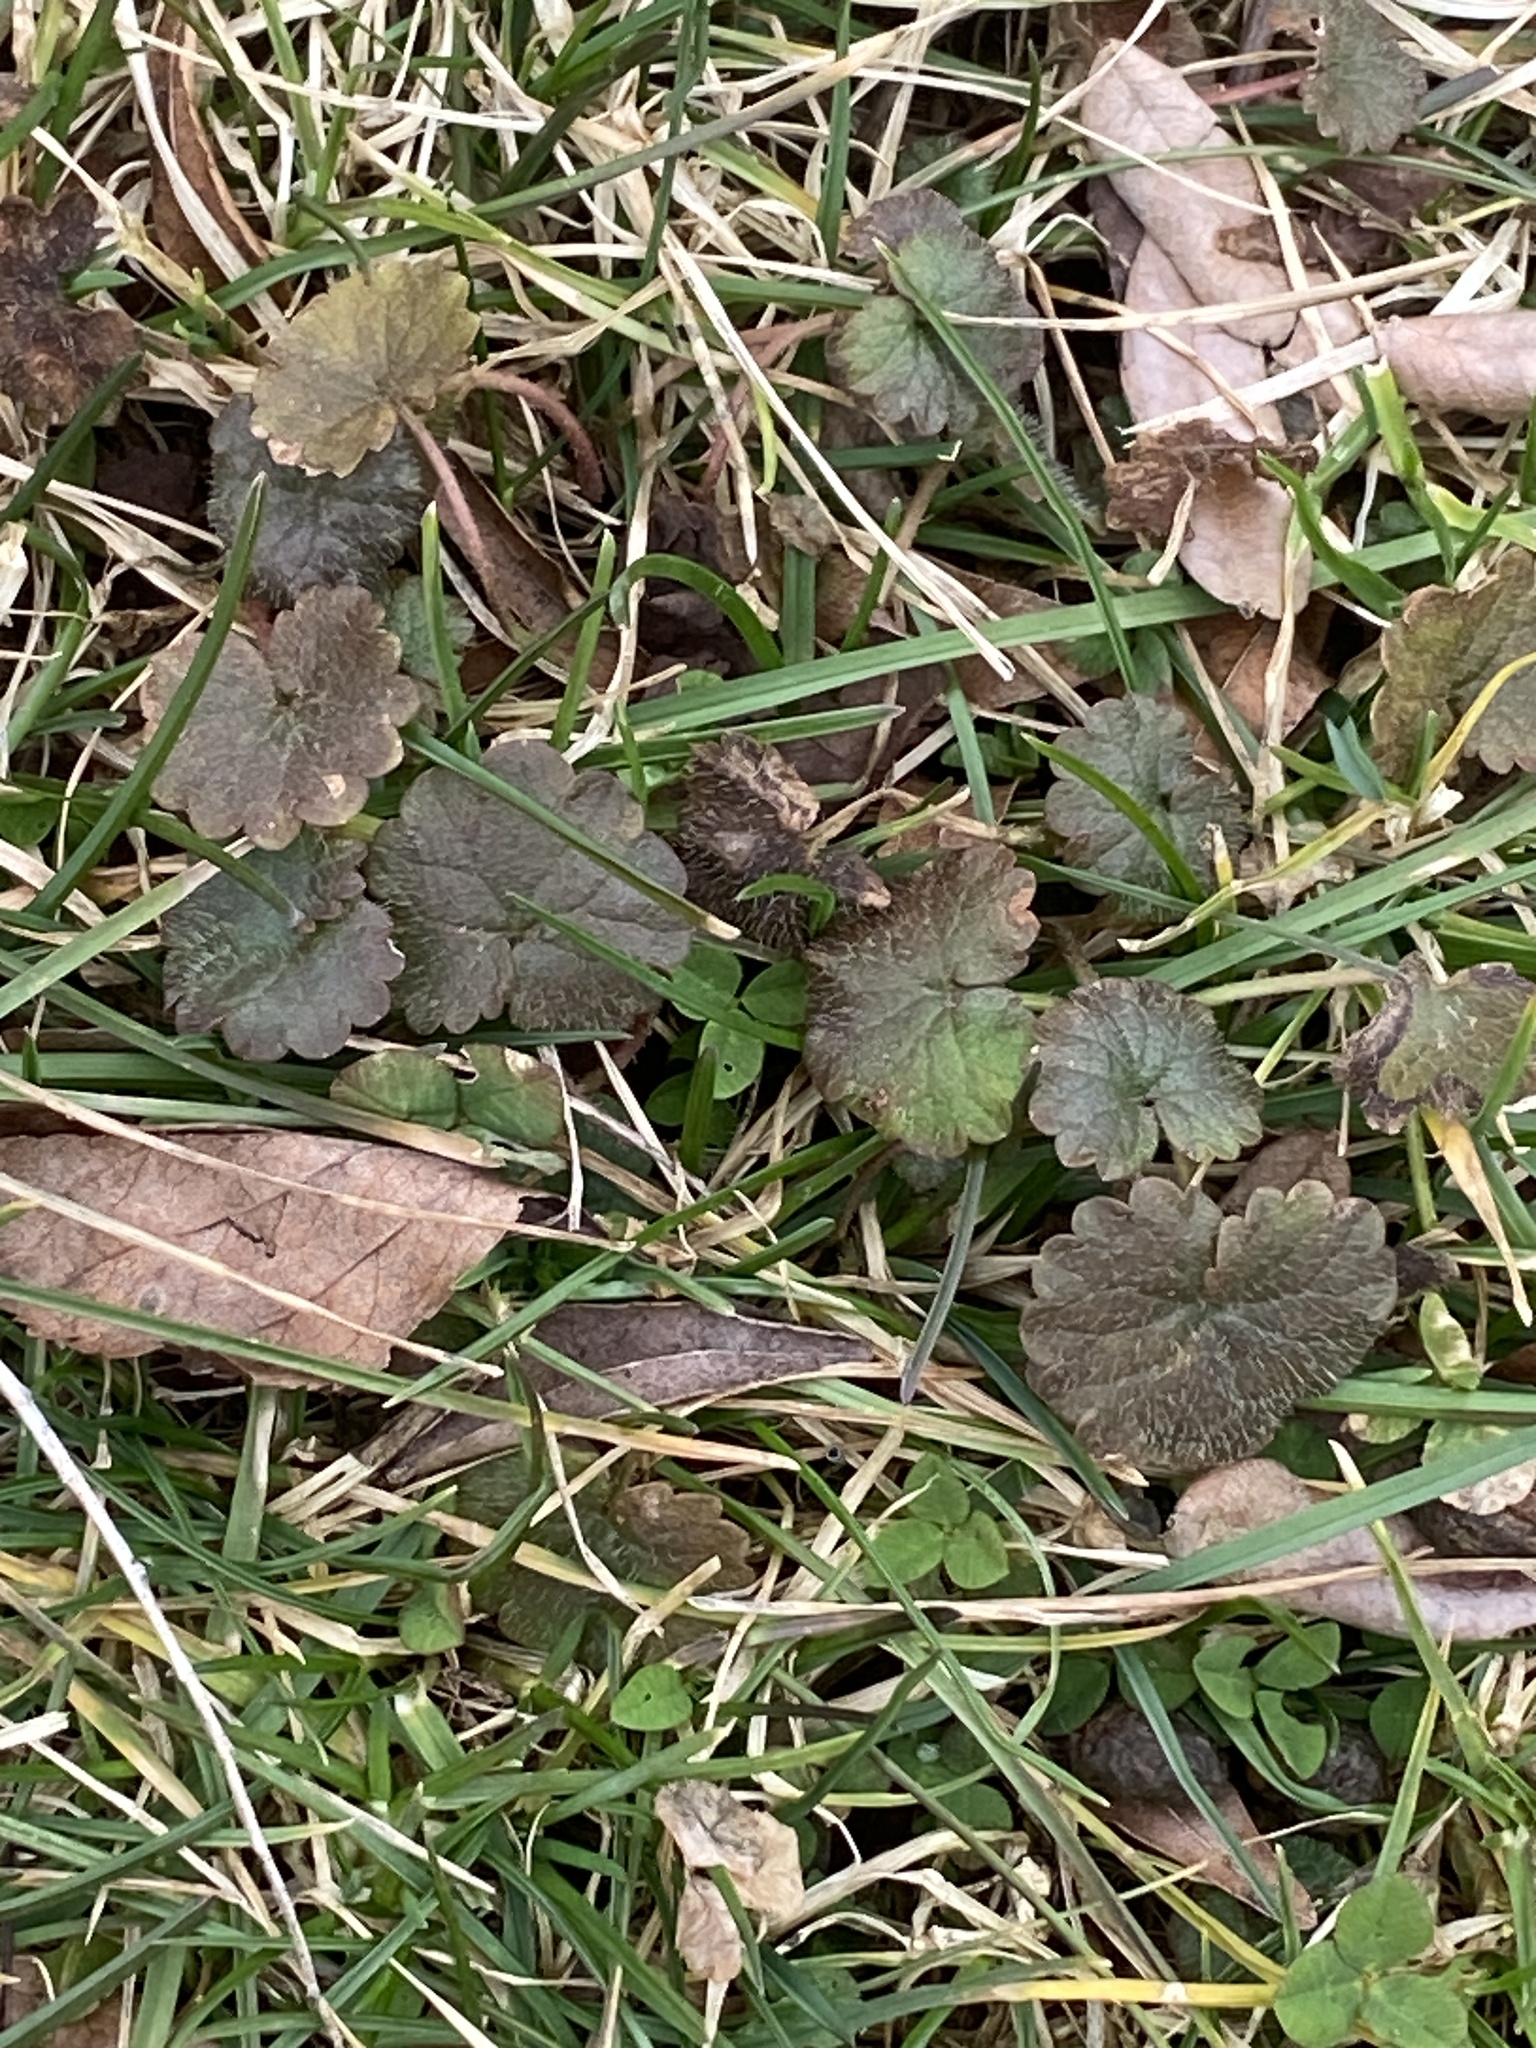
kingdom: Plantae
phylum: Tracheophyta
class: Magnoliopsida
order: Lamiales
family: Lamiaceae
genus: Glechoma
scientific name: Glechoma hederacea
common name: Ground ivy
